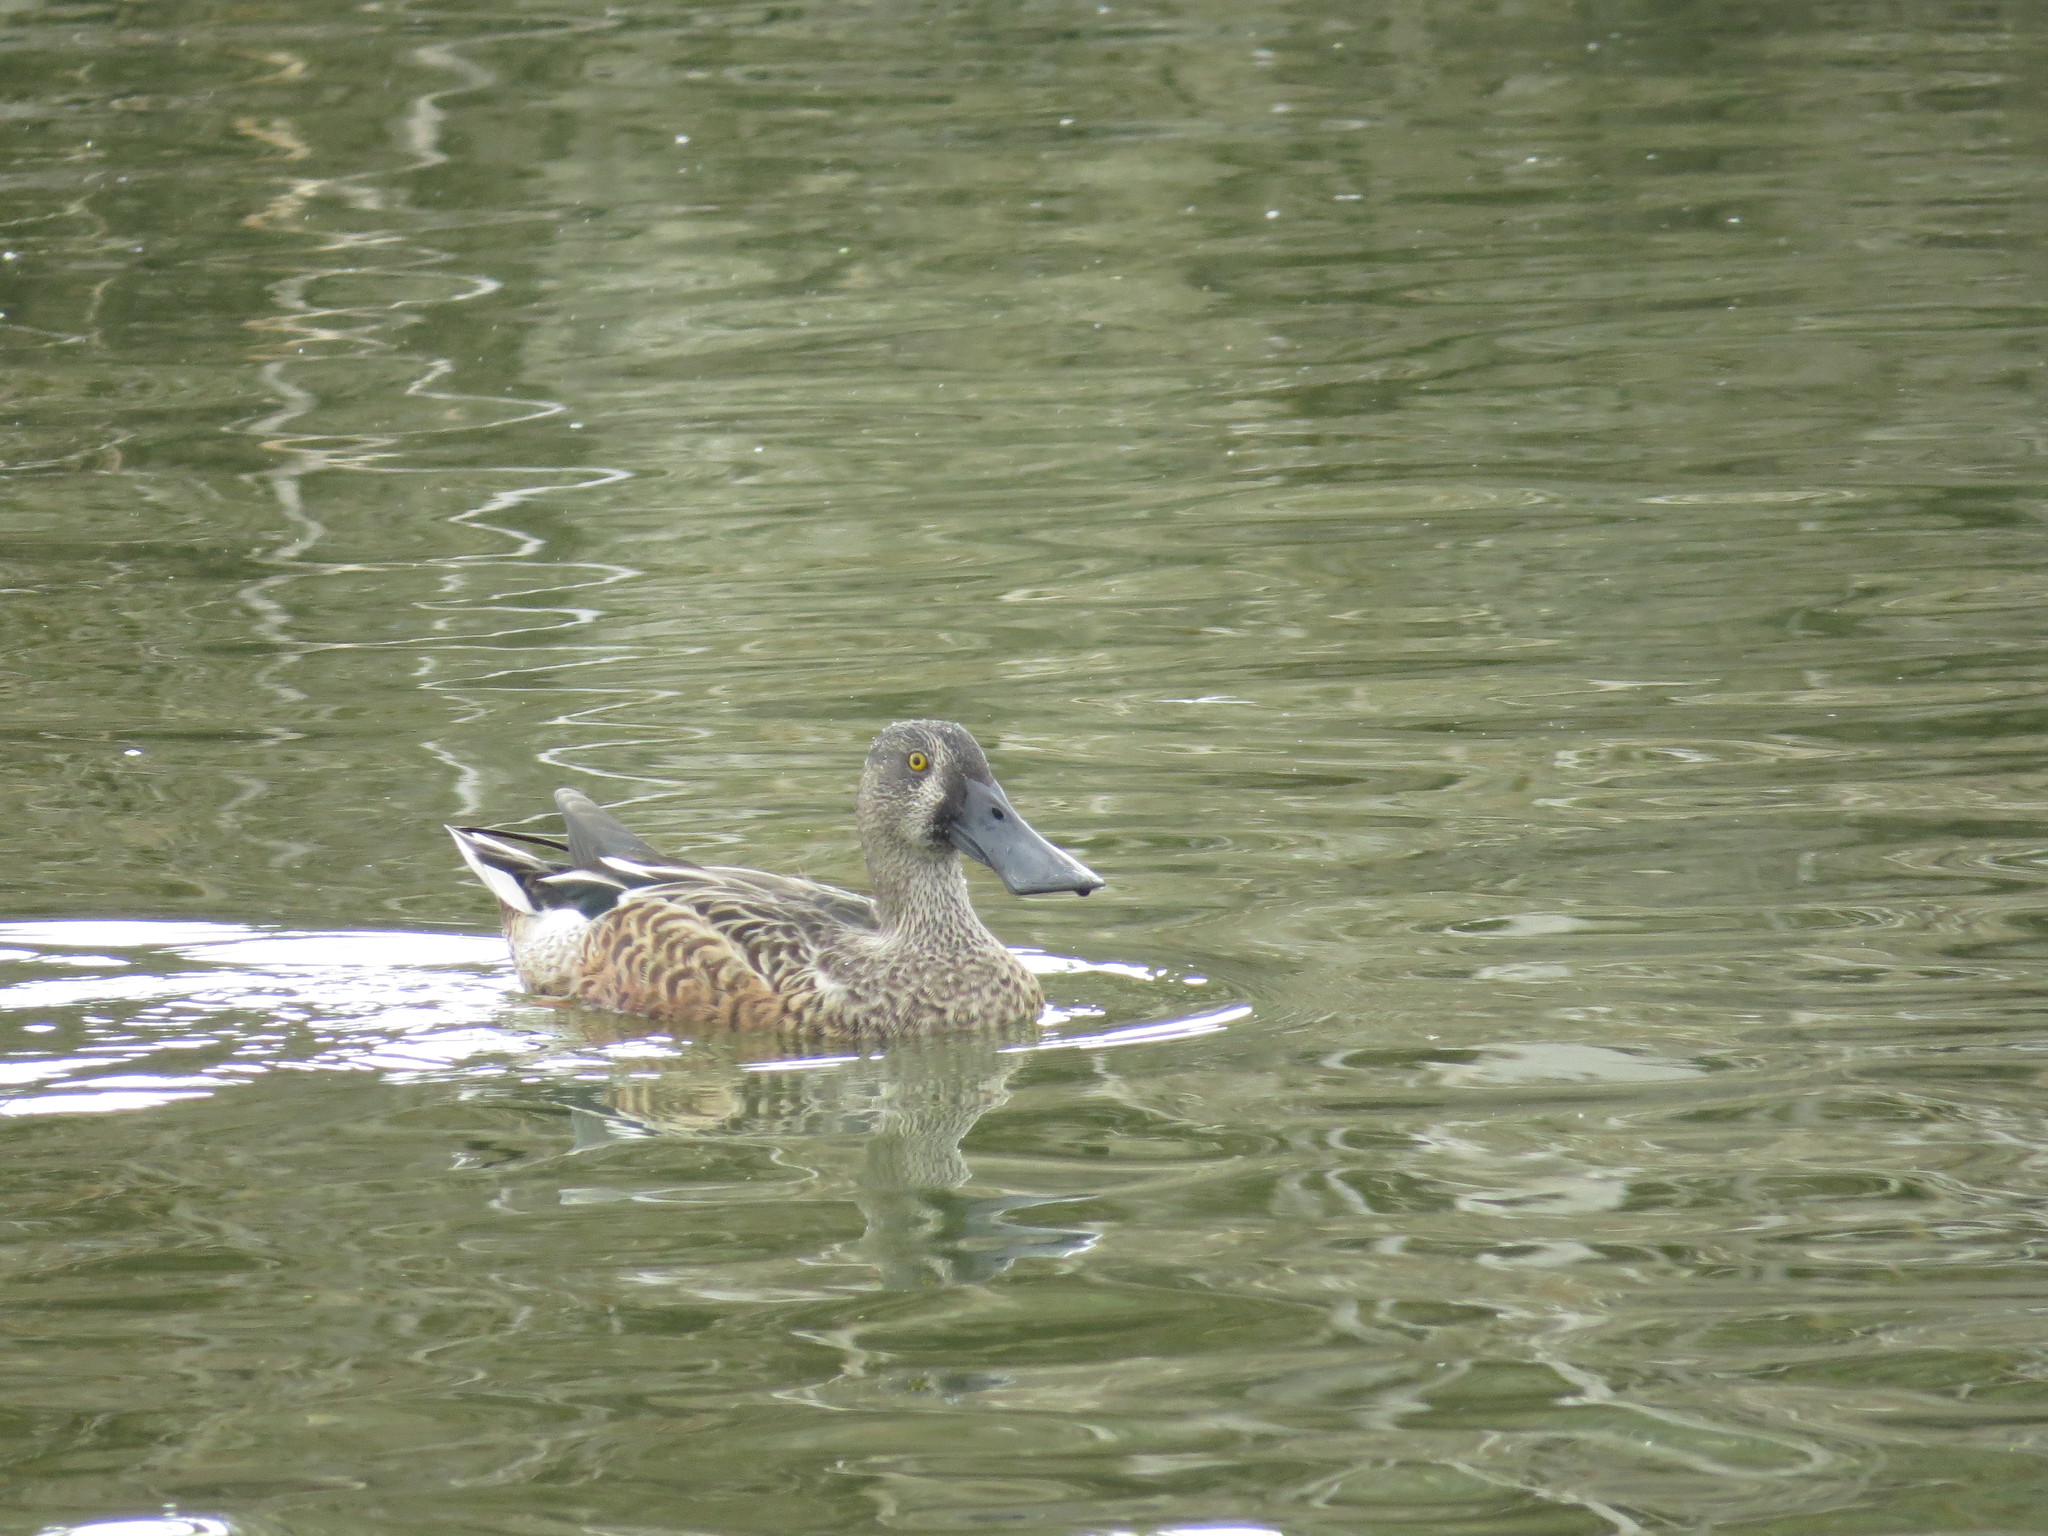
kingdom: Animalia
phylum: Chordata
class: Aves
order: Anseriformes
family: Anatidae
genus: Spatula
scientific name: Spatula clypeata
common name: Northern shoveler
